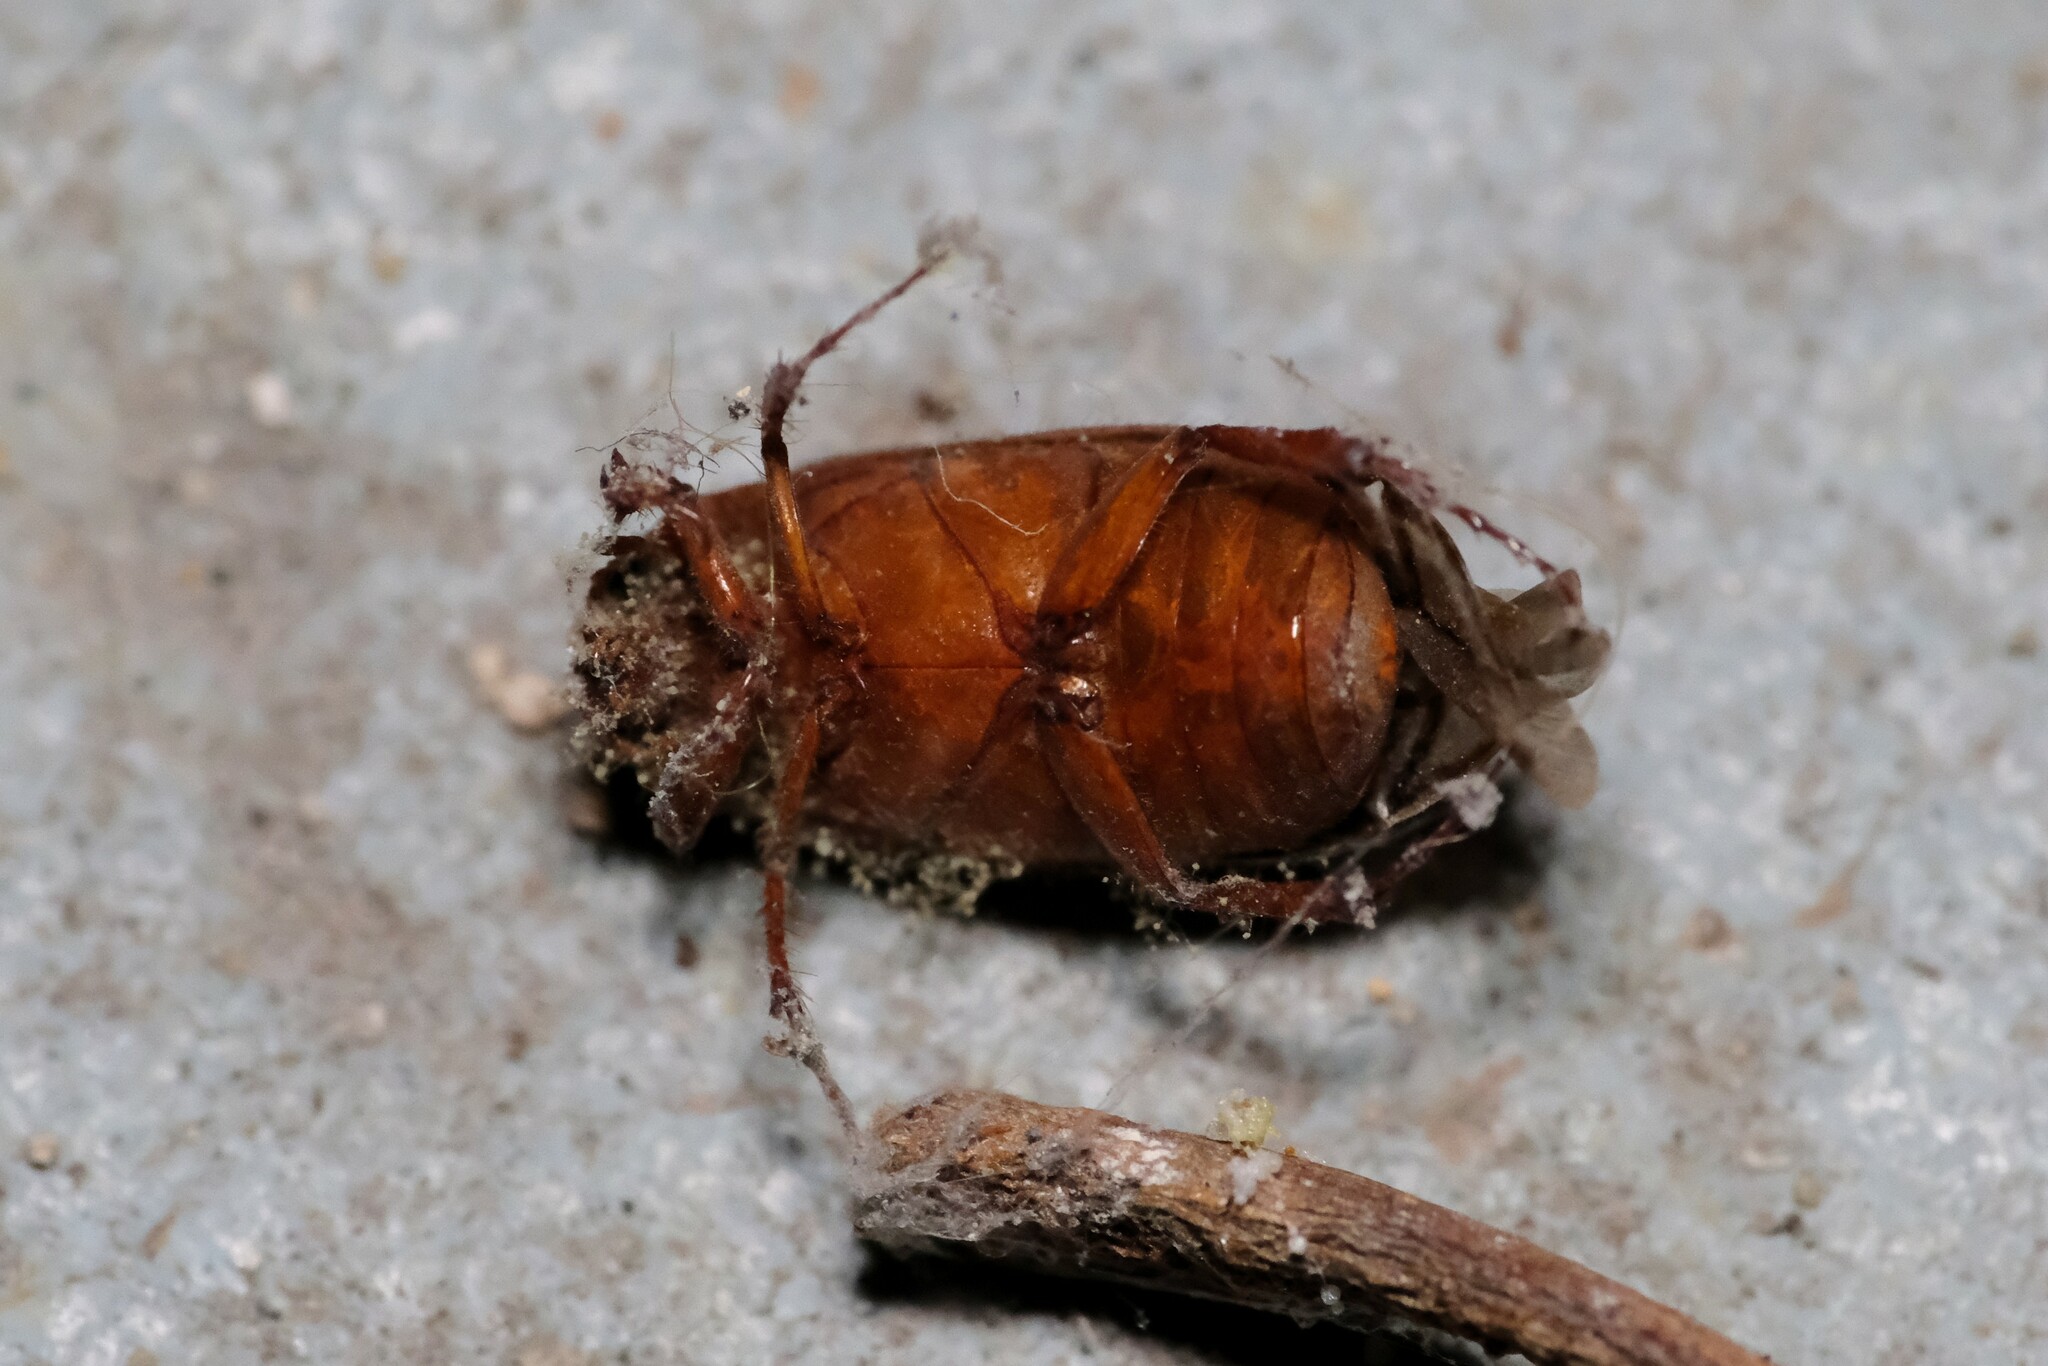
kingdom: Animalia
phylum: Arthropoda
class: Insecta
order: Coleoptera
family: Scarabaeidae
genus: Serica
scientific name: Serica brunnea
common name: Brown chafer
